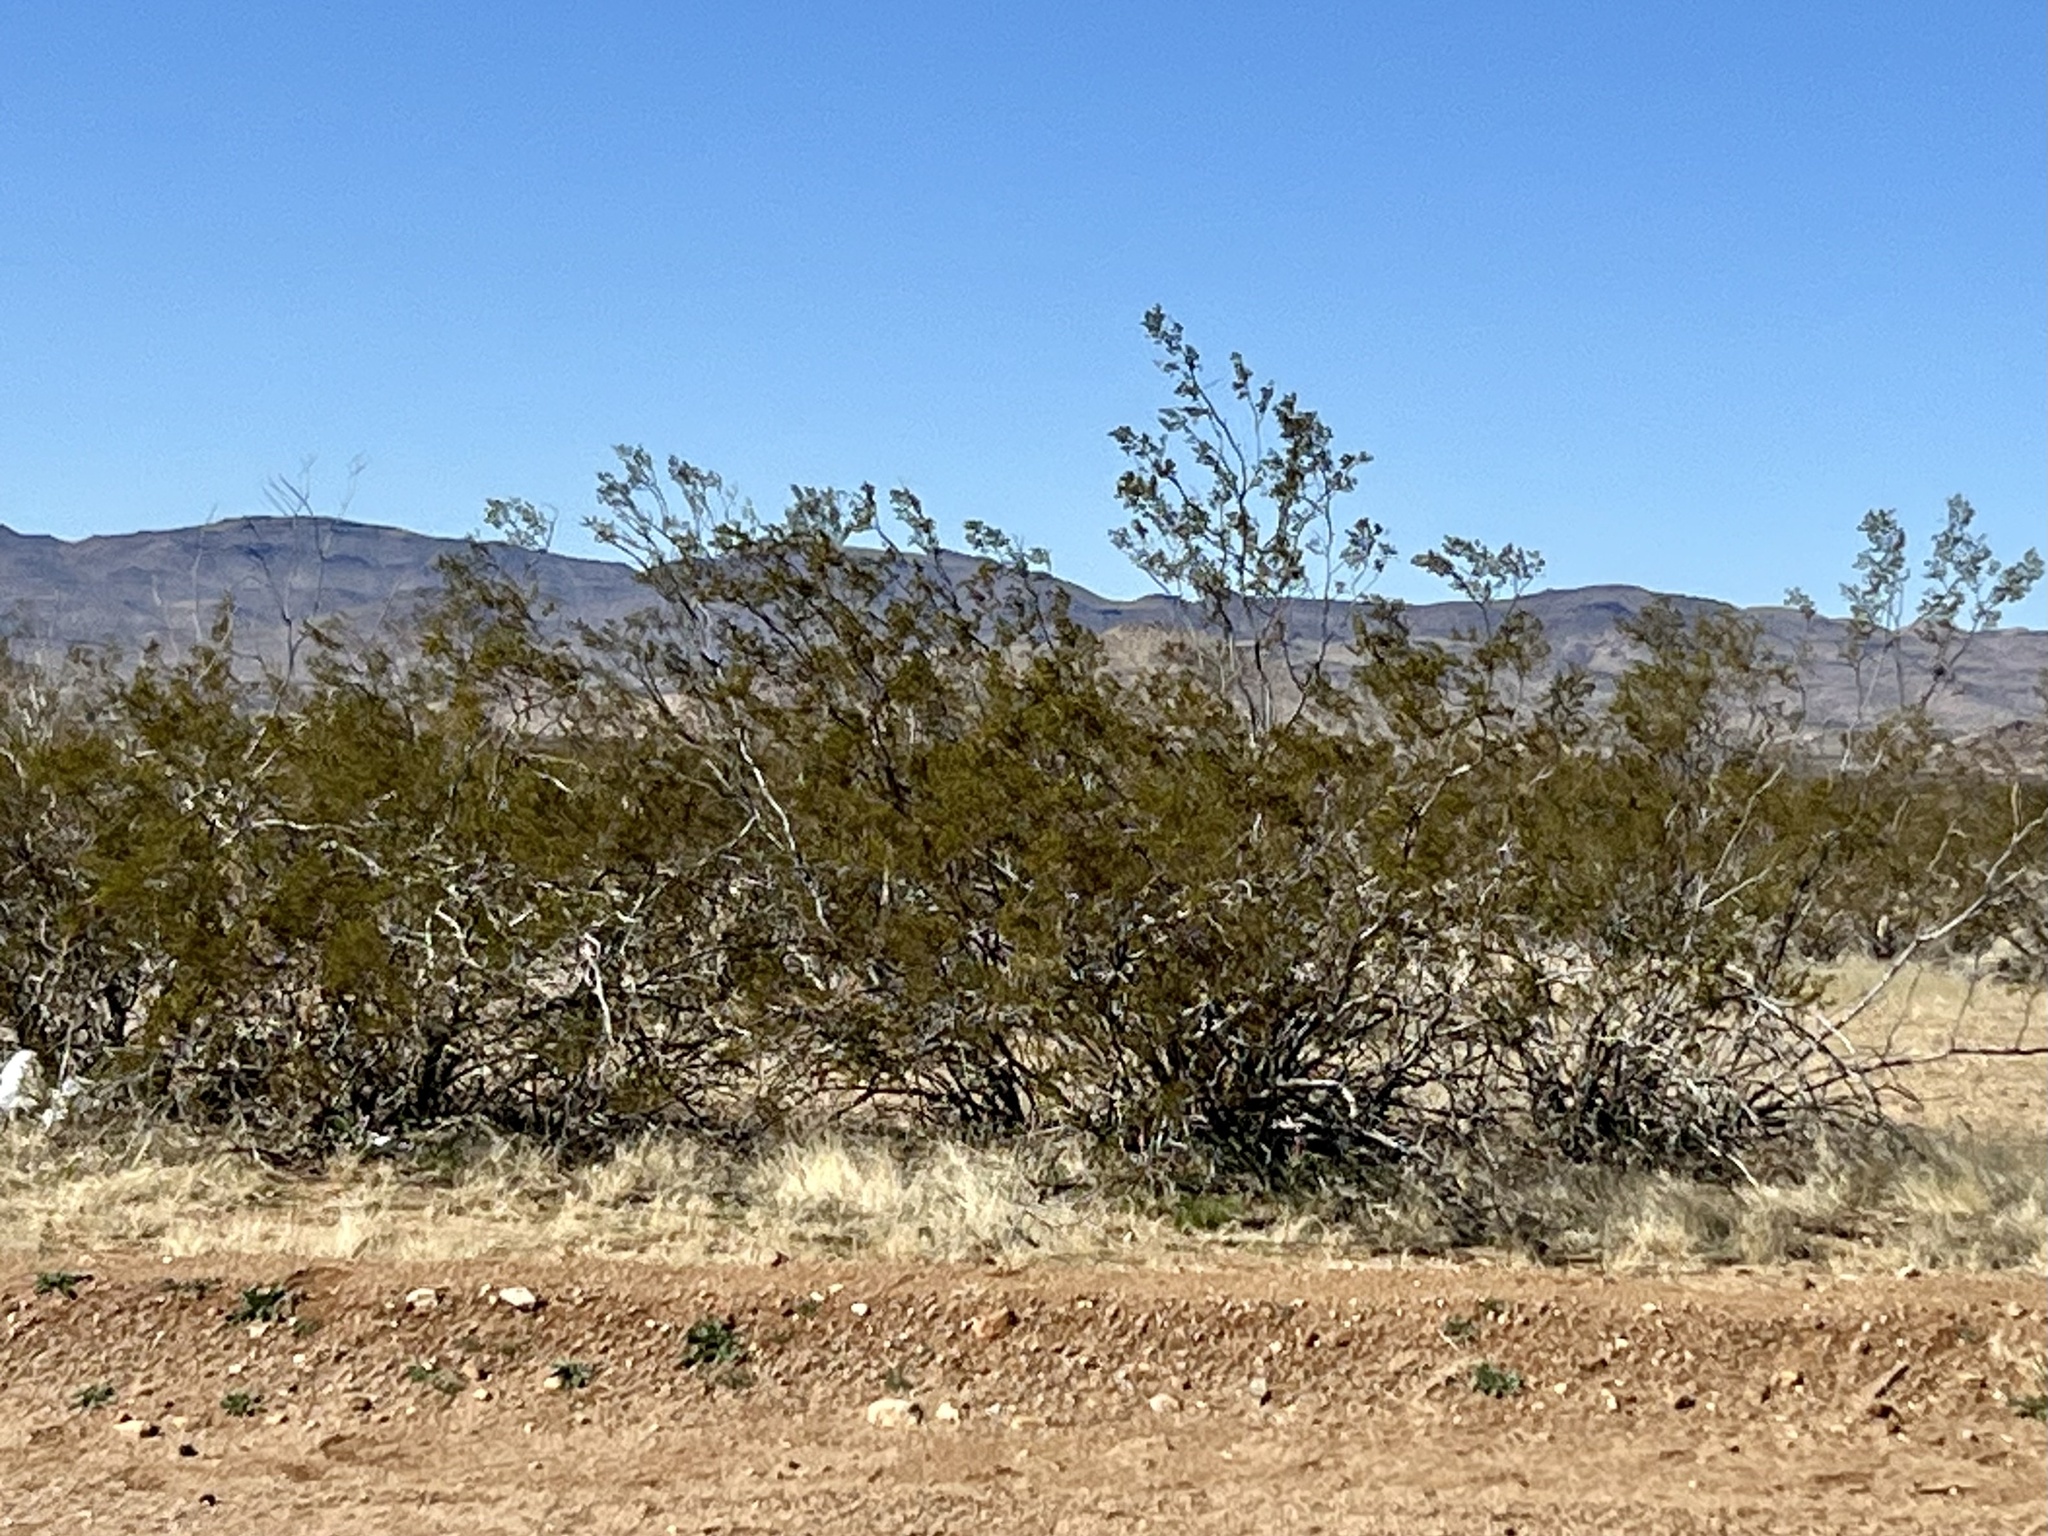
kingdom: Plantae
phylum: Tracheophyta
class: Magnoliopsida
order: Zygophyllales
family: Zygophyllaceae
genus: Larrea
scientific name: Larrea tridentata
